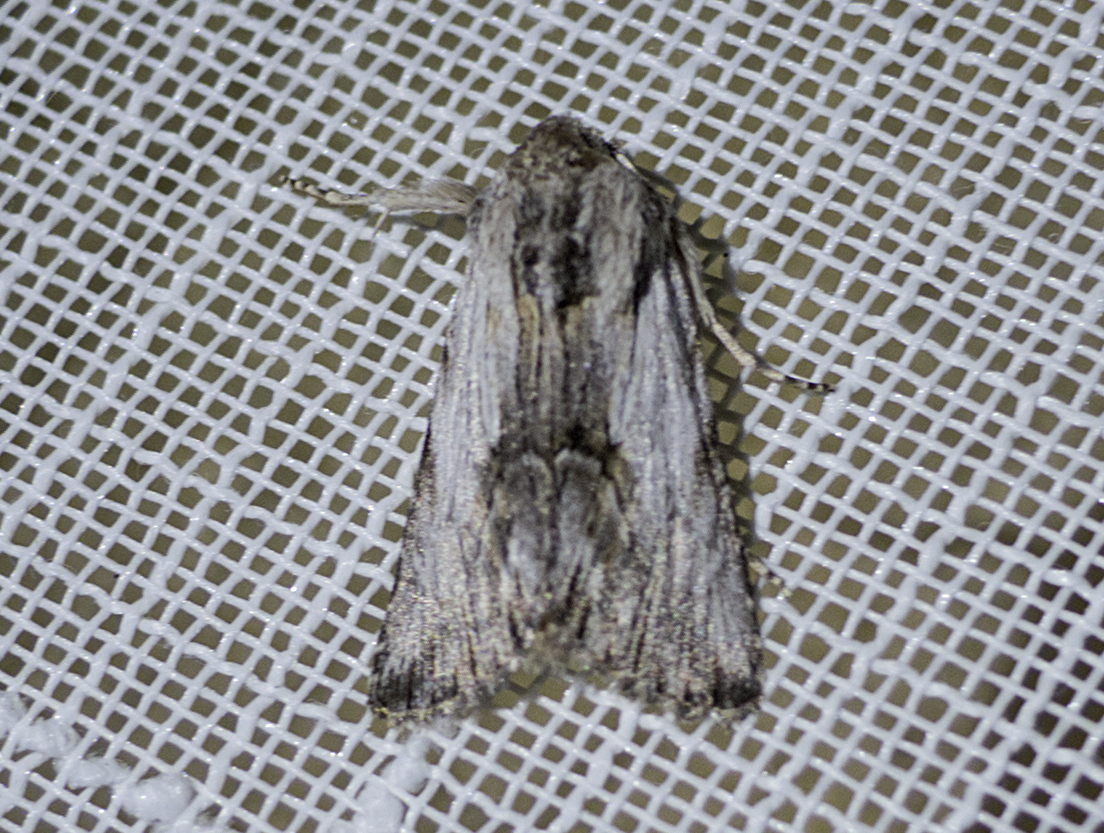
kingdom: Animalia
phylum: Arthropoda
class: Insecta
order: Lepidoptera
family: Noctuidae
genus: Calophasia
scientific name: Calophasia platyptera
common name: Antirrhinum brocade
